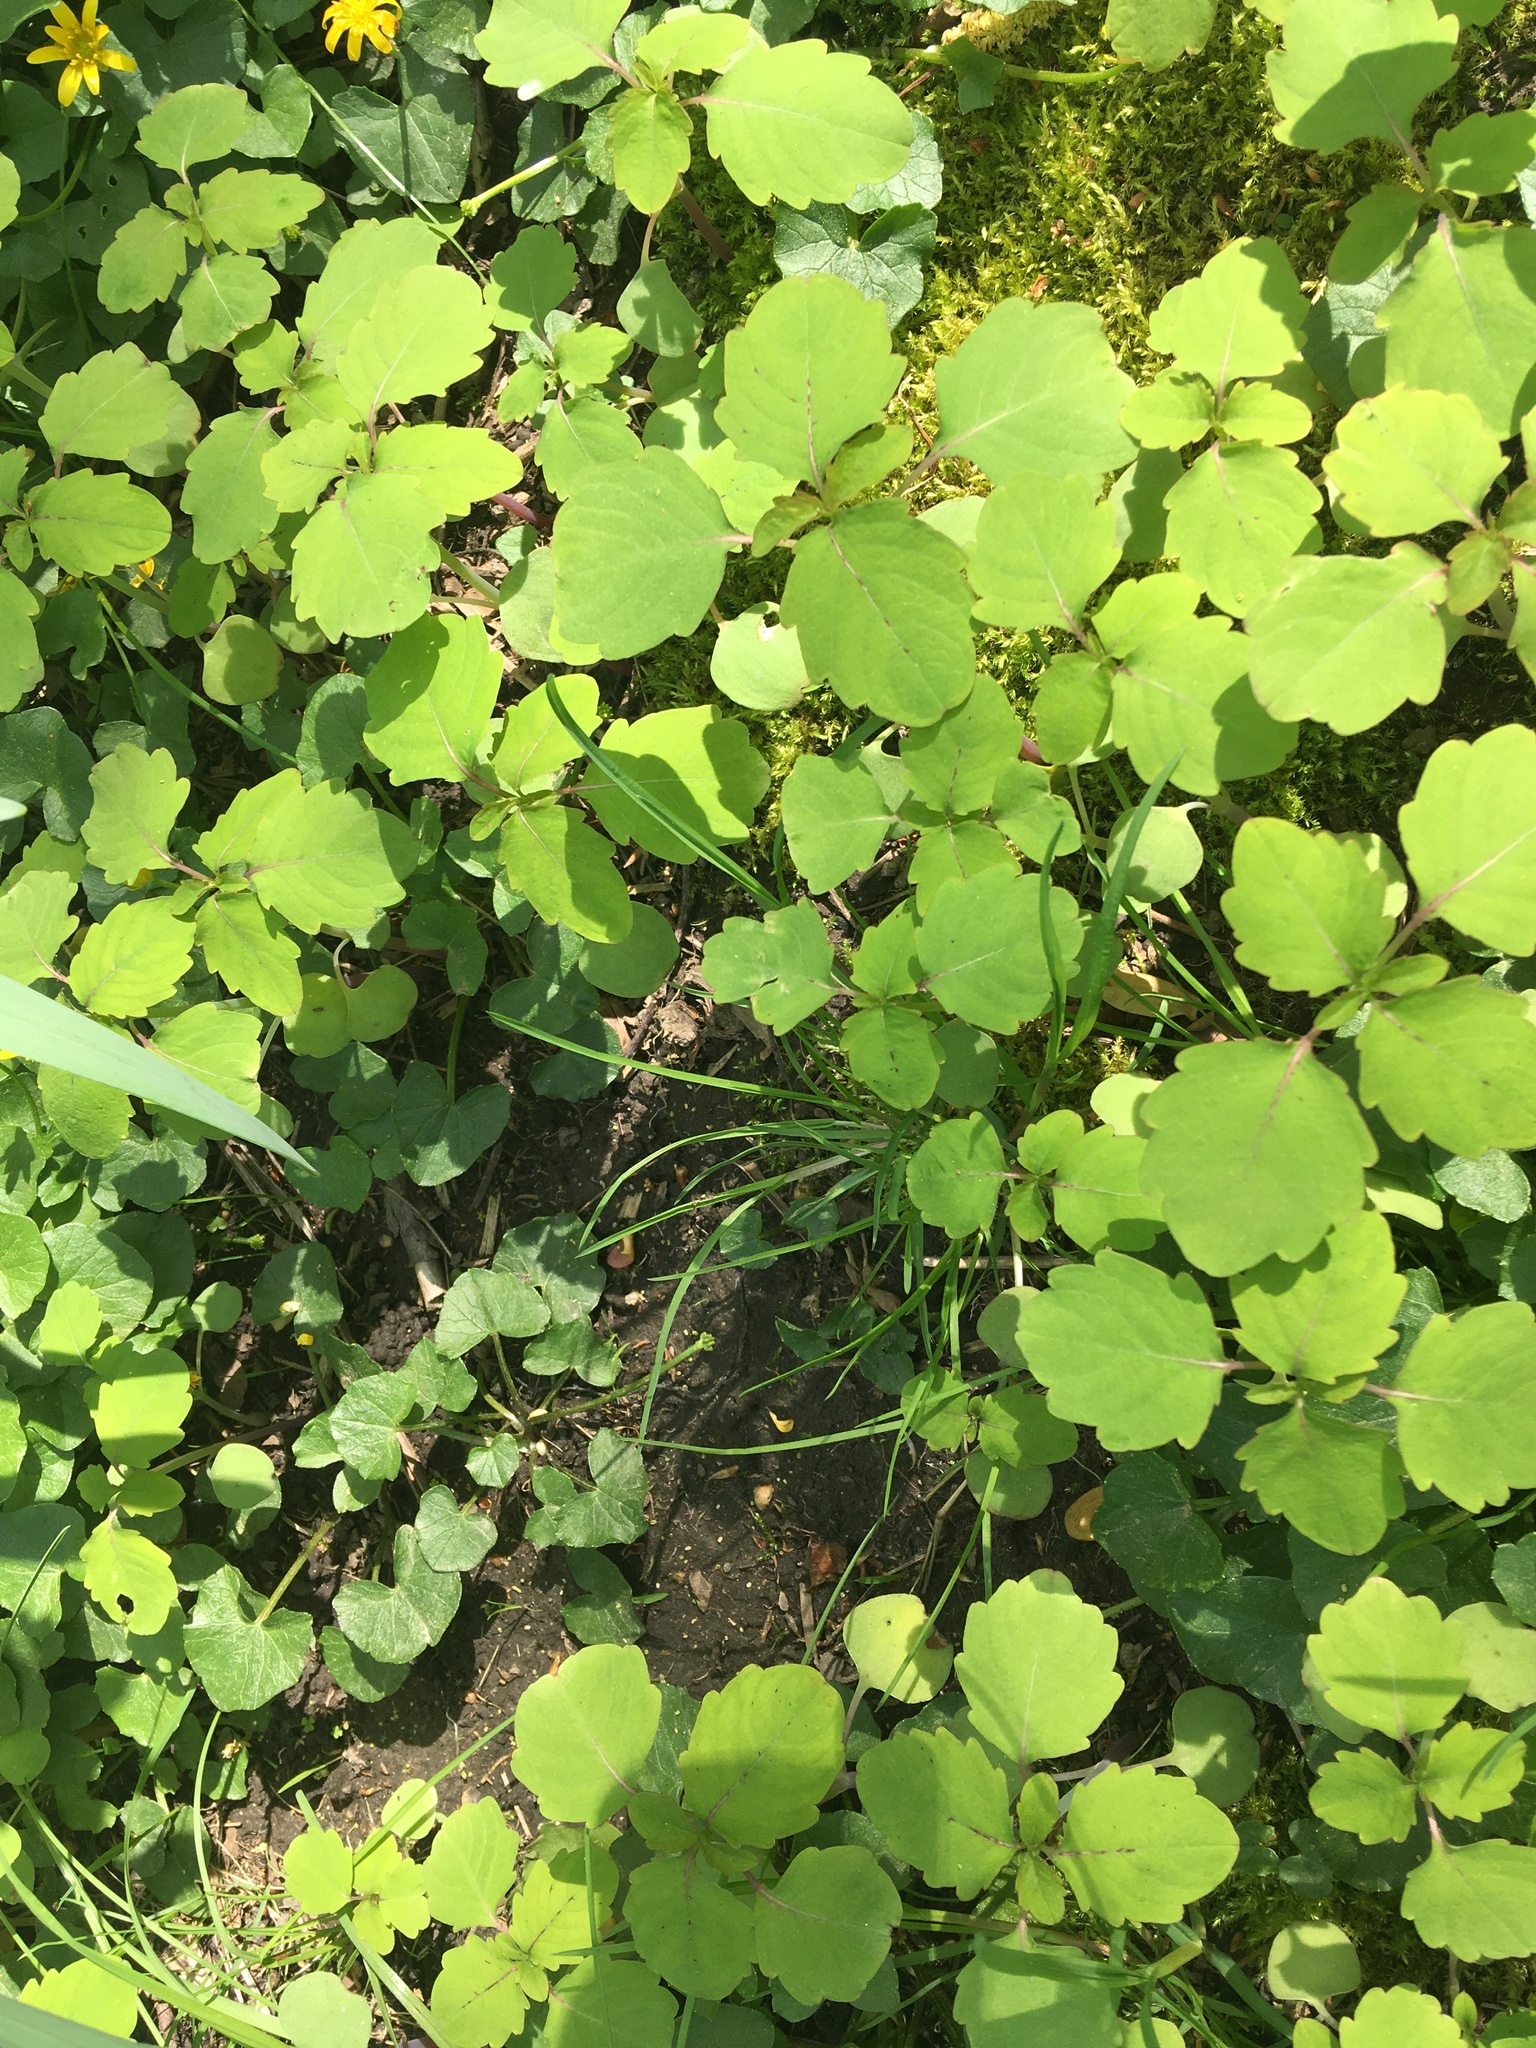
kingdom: Plantae
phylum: Tracheophyta
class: Magnoliopsida
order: Ericales
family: Balsaminaceae
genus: Impatiens
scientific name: Impatiens capensis
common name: Orange balsam
